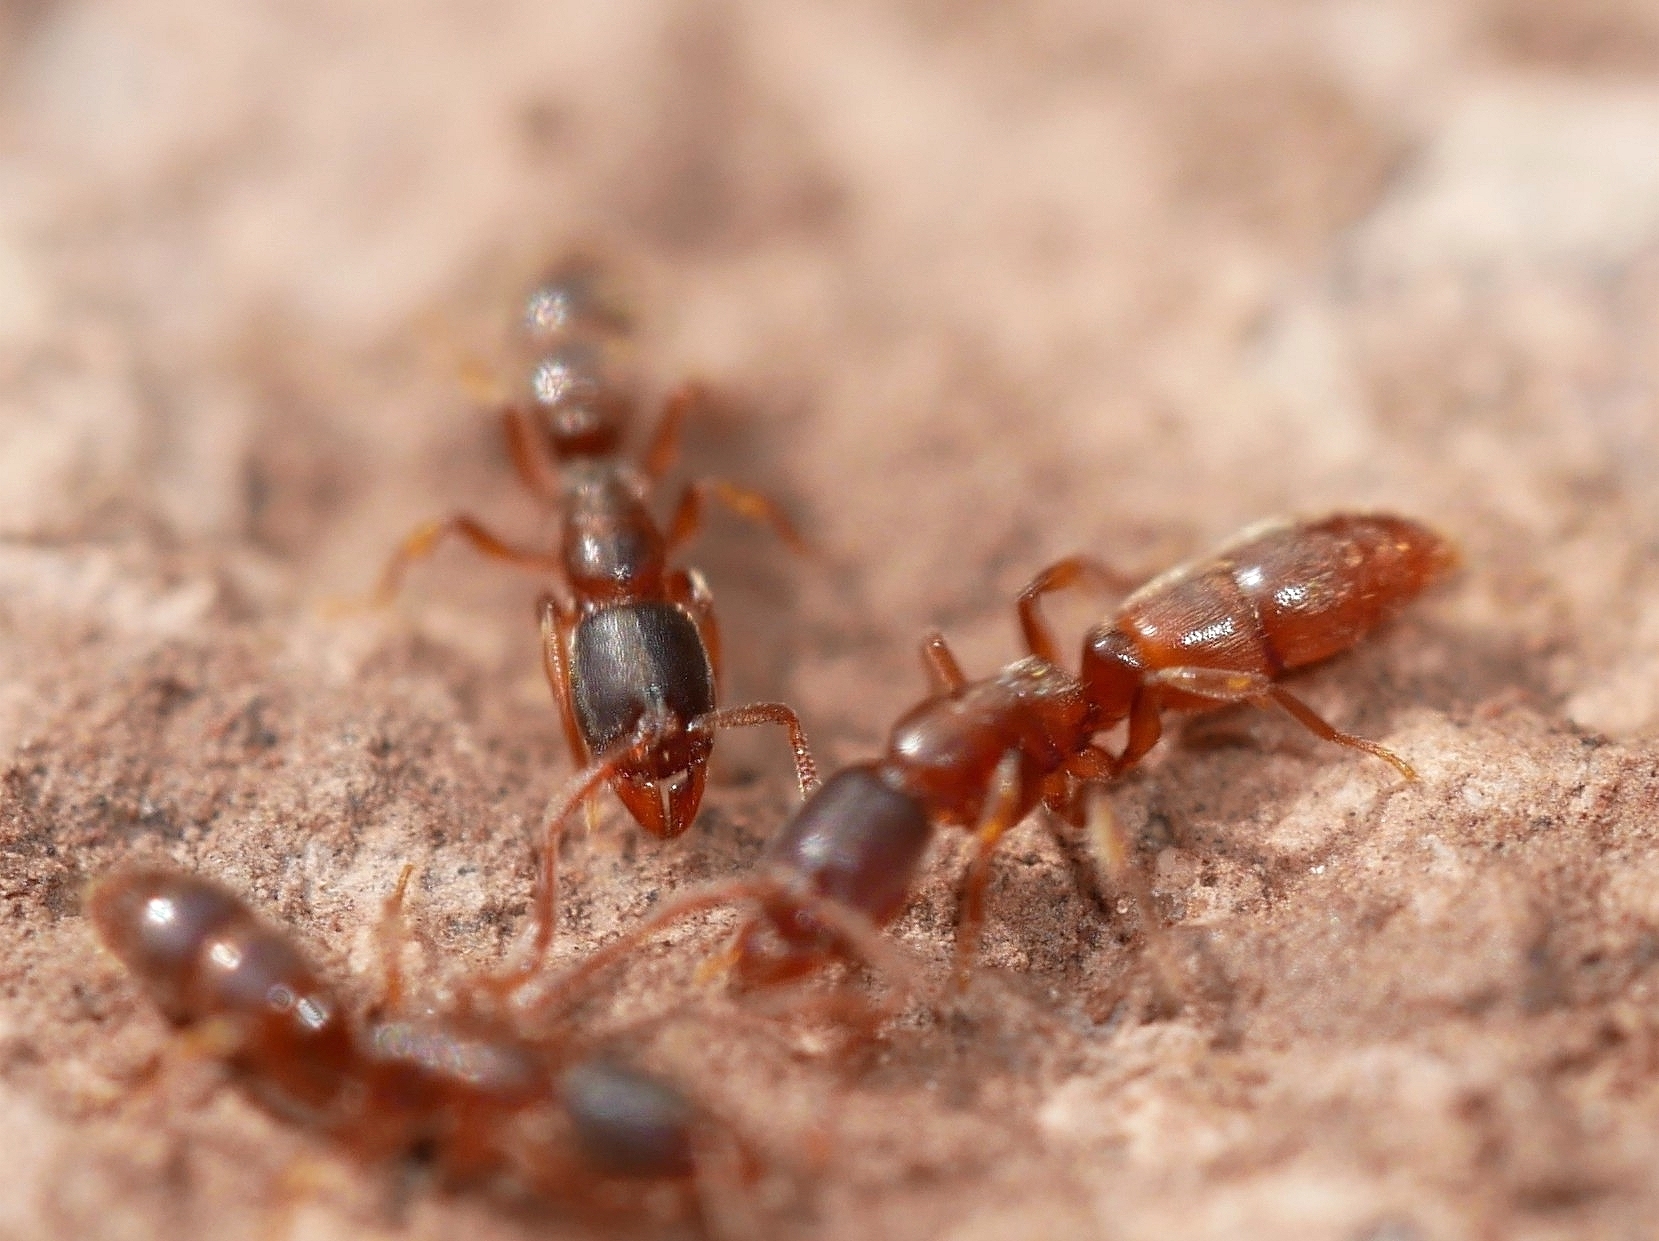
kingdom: Animalia
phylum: Arthropoda
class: Insecta
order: Hymenoptera
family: Formicidae
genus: Ponera
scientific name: Ponera pennsylvanica
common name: Pennsylvania ponera
